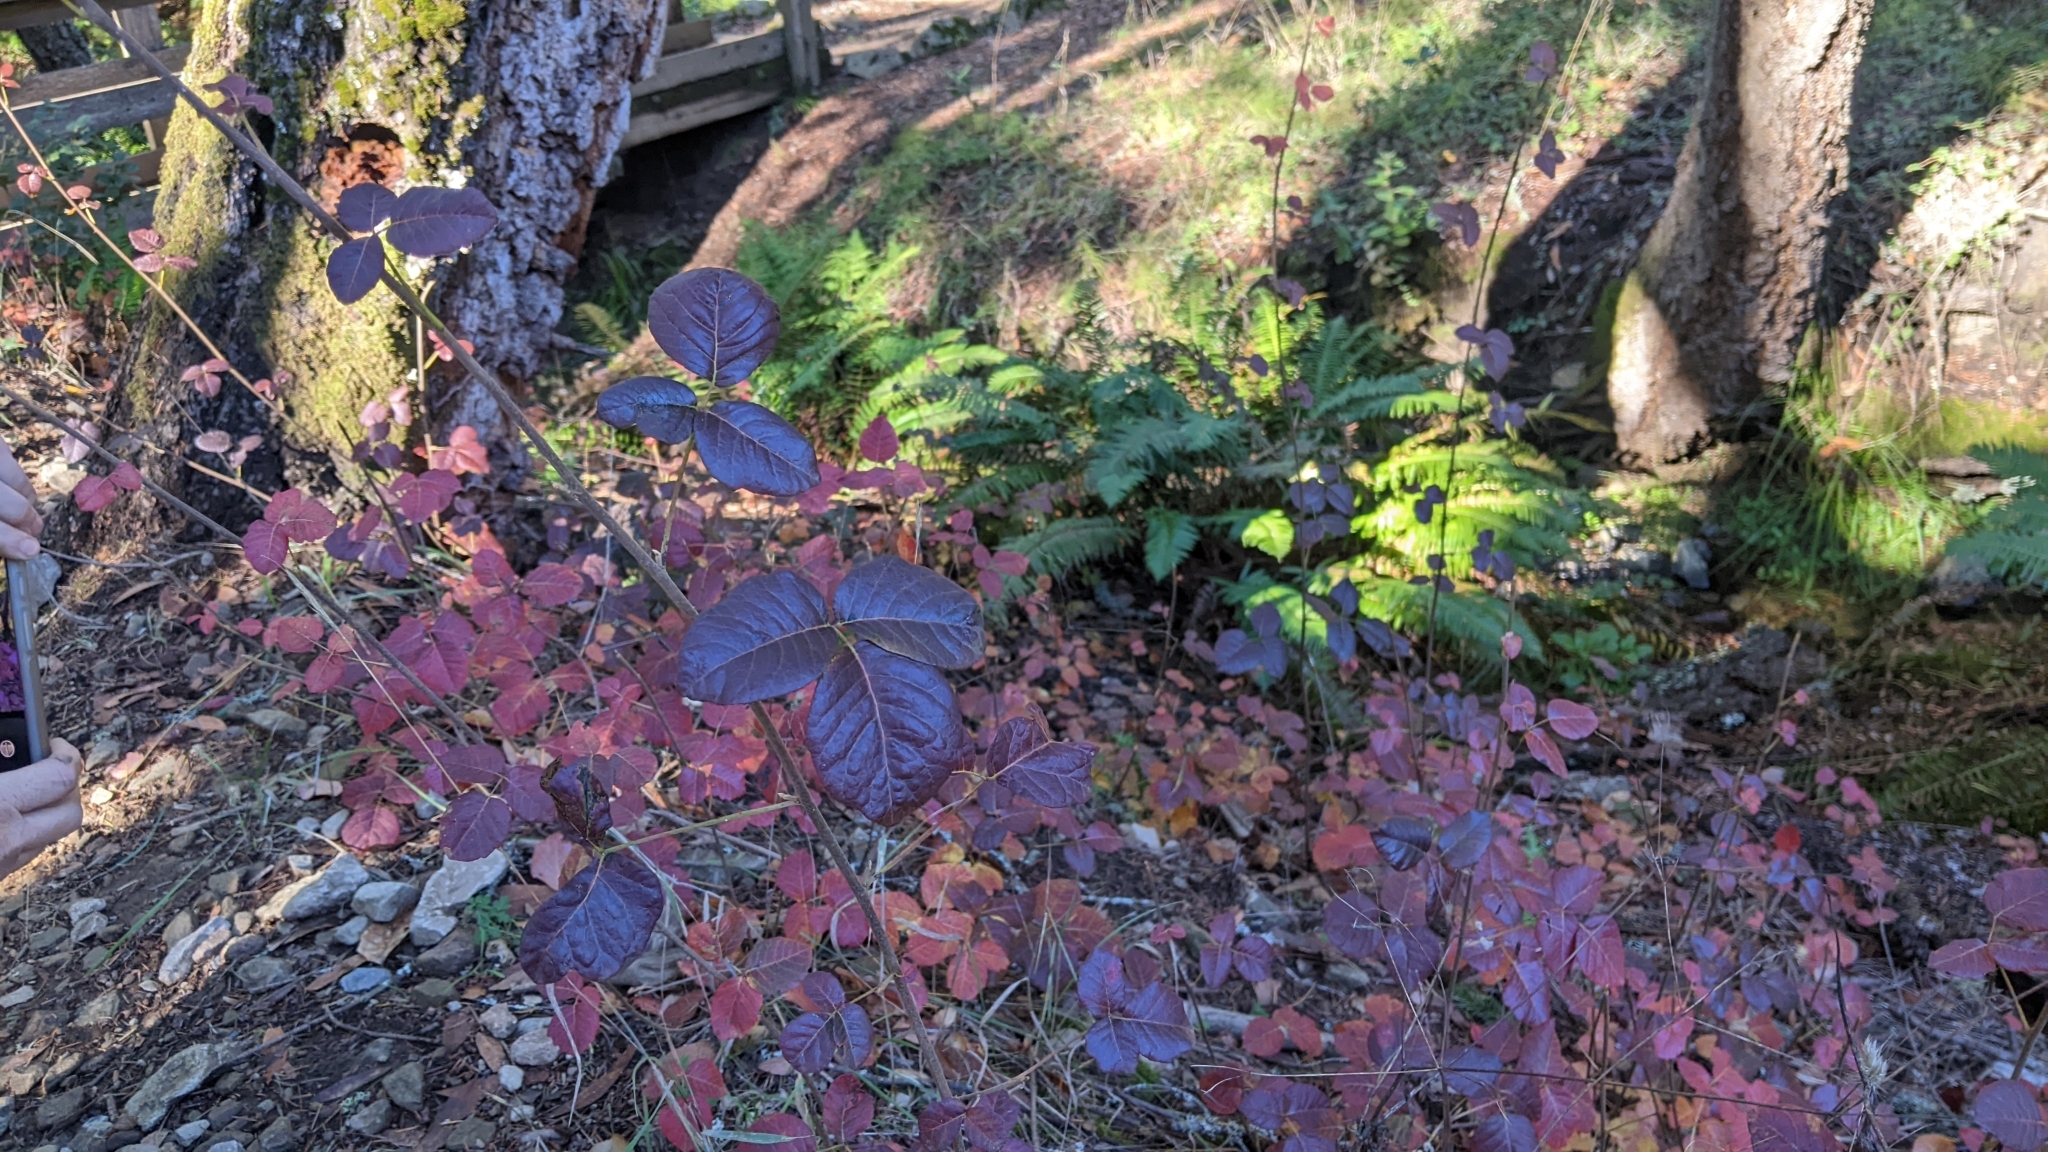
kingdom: Plantae
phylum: Tracheophyta
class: Magnoliopsida
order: Sapindales
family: Anacardiaceae
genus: Toxicodendron
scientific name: Toxicodendron diversilobum
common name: Pacific poison-oak
